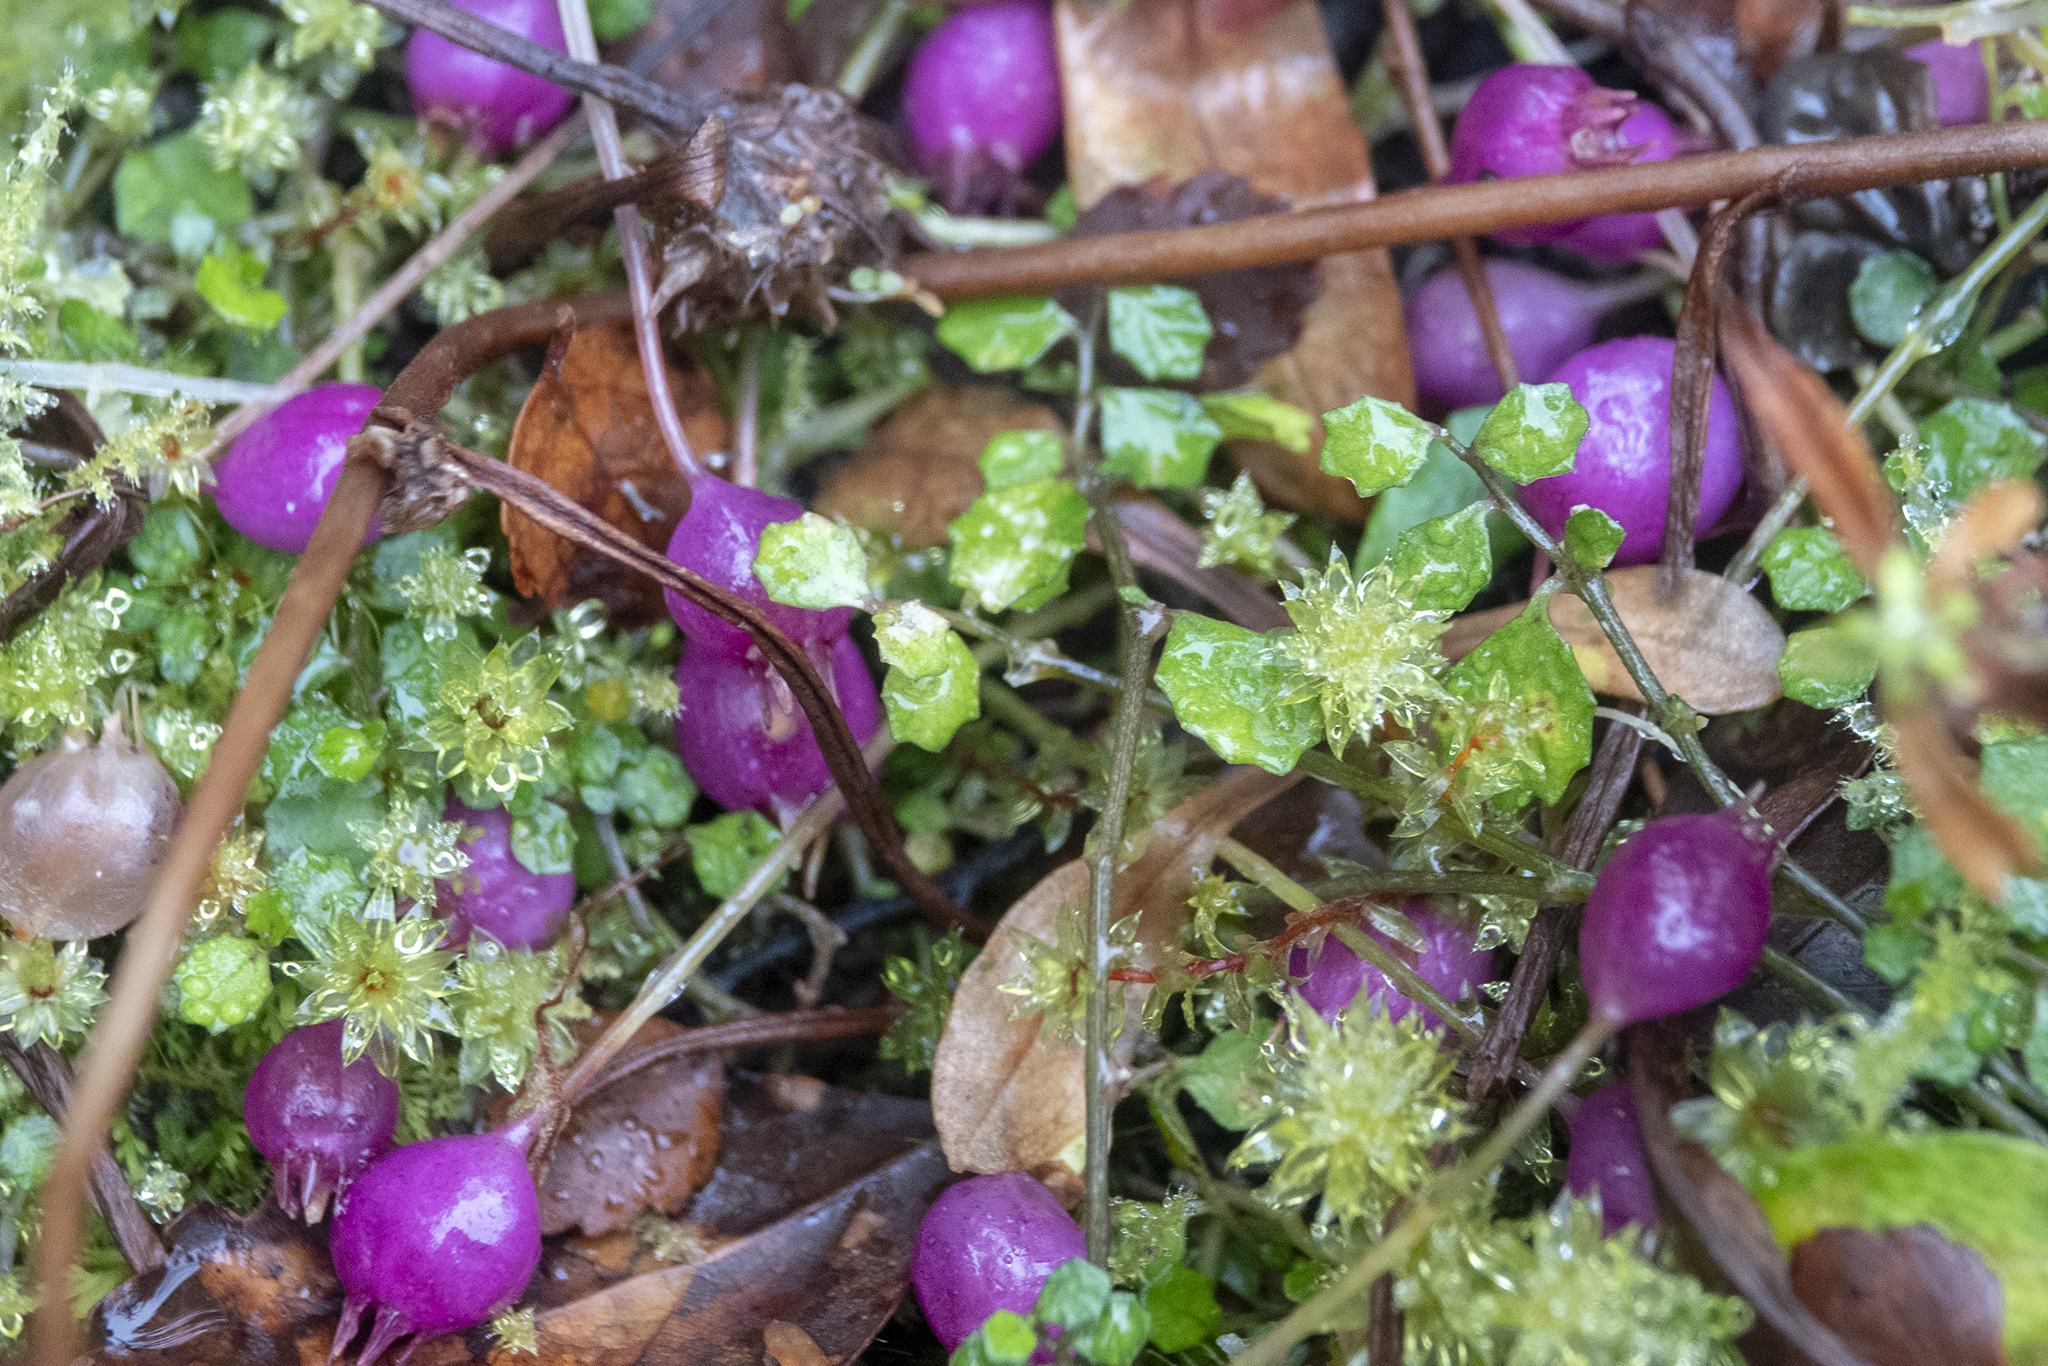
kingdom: Plantae
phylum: Tracheophyta
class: Magnoliopsida
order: Asterales
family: Campanulaceae
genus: Lobelia
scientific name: Lobelia angulata
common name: Lawn lobelia
